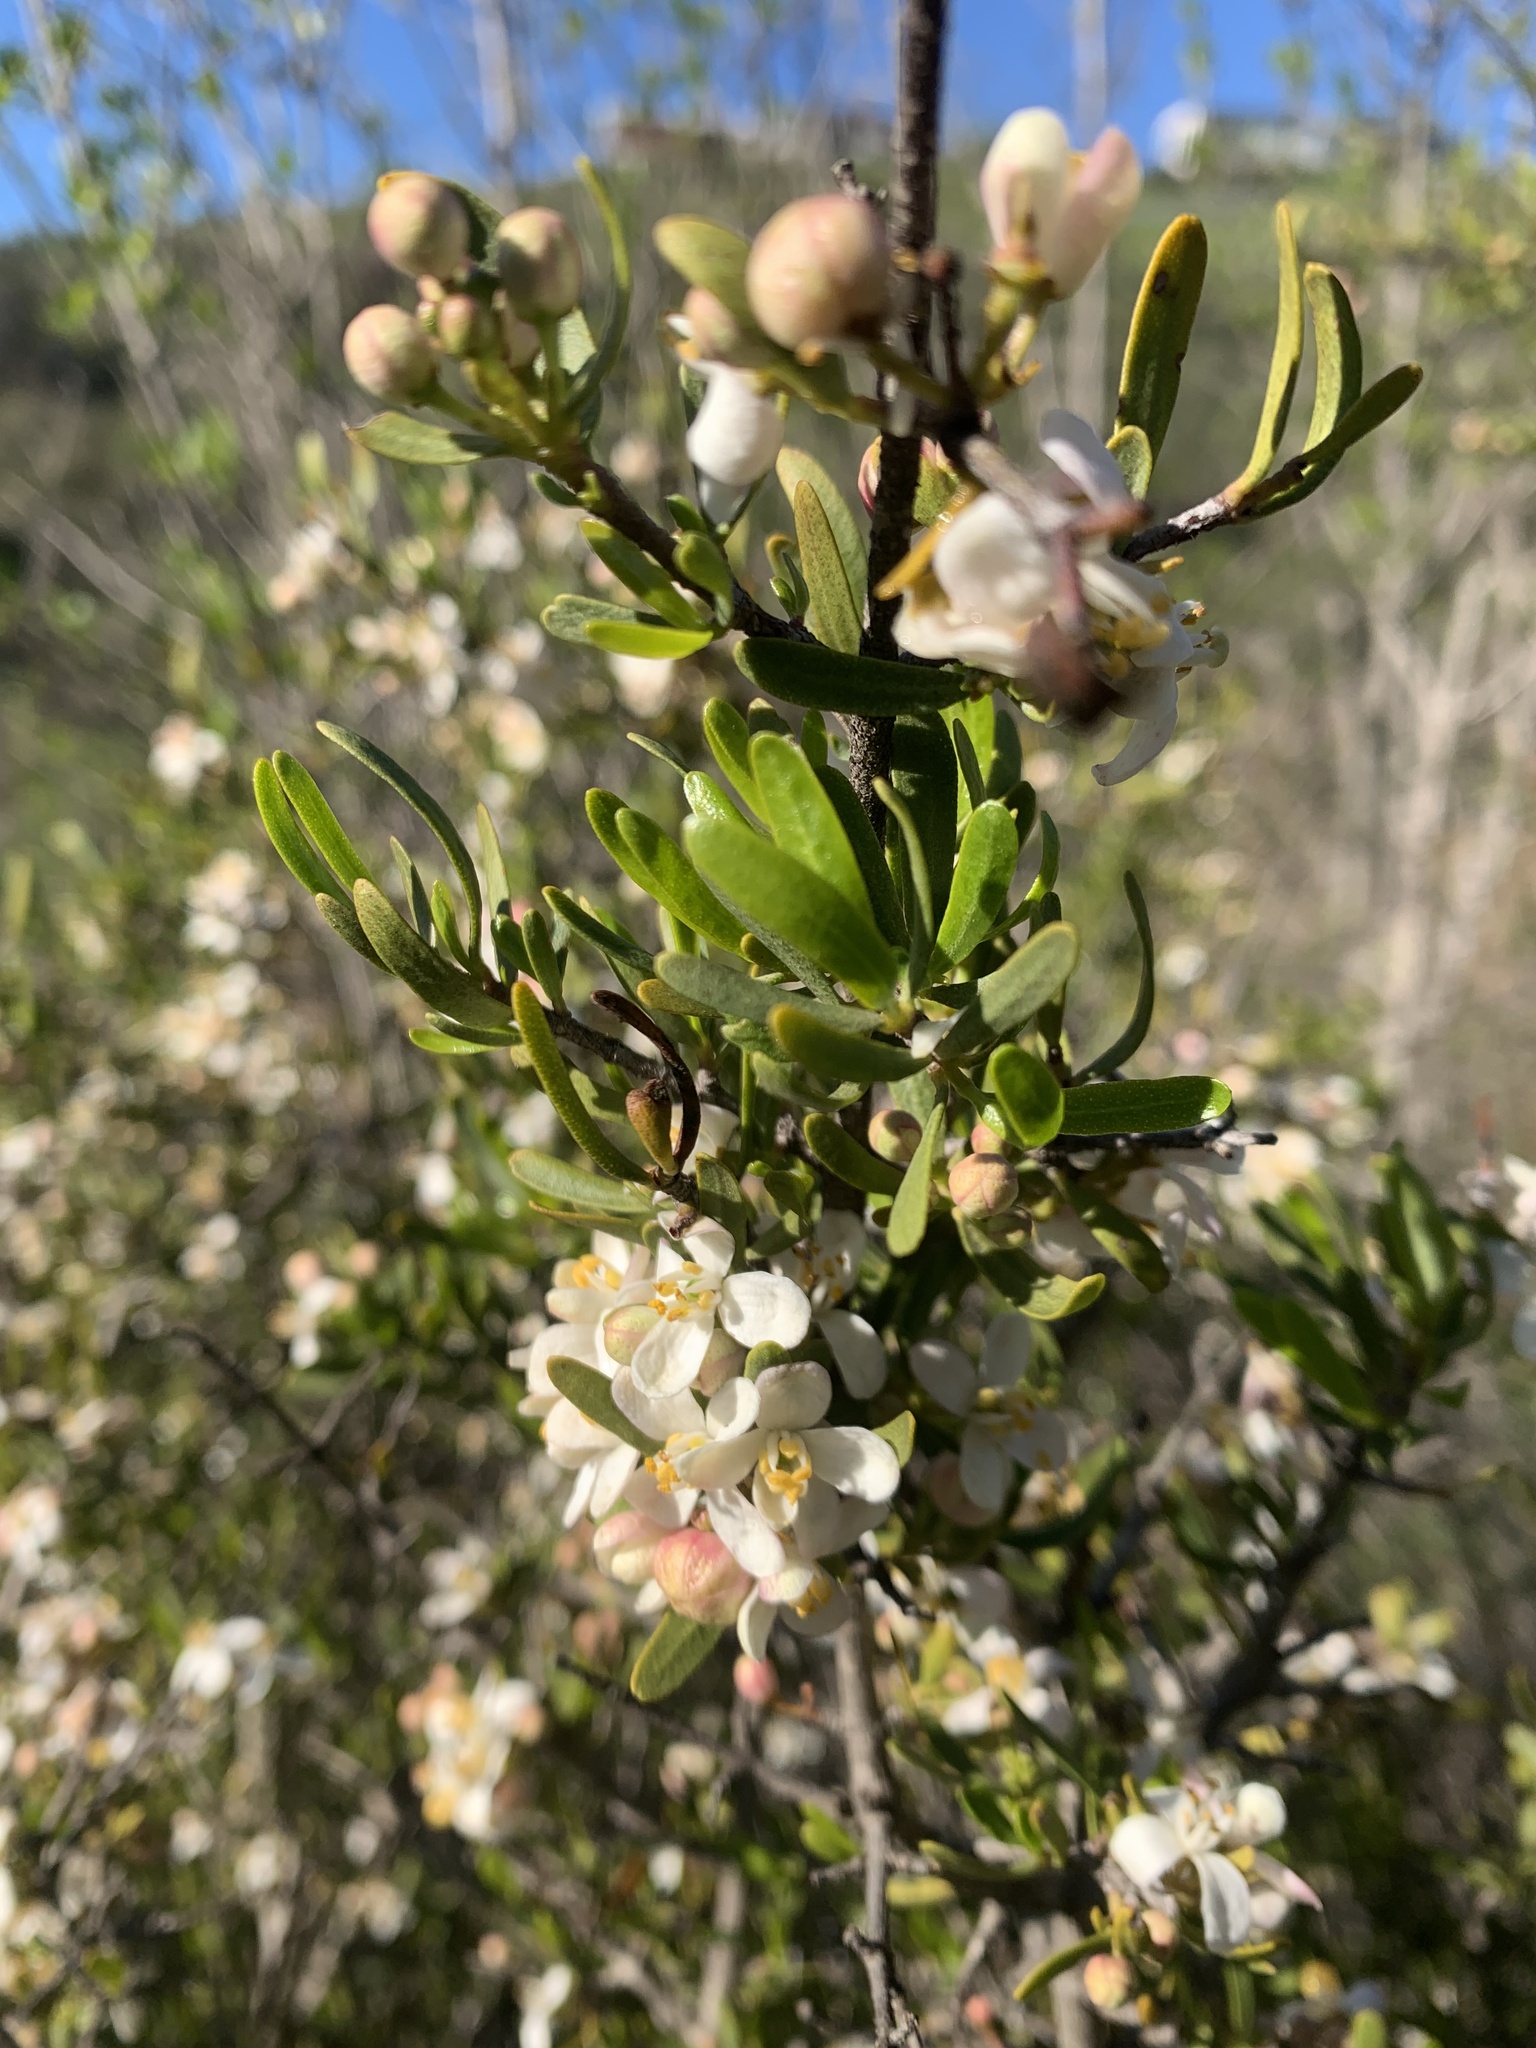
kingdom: Plantae
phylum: Tracheophyta
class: Magnoliopsida
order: Sapindales
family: Rutaceae
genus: Cneoridium
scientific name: Cneoridium dumosum
